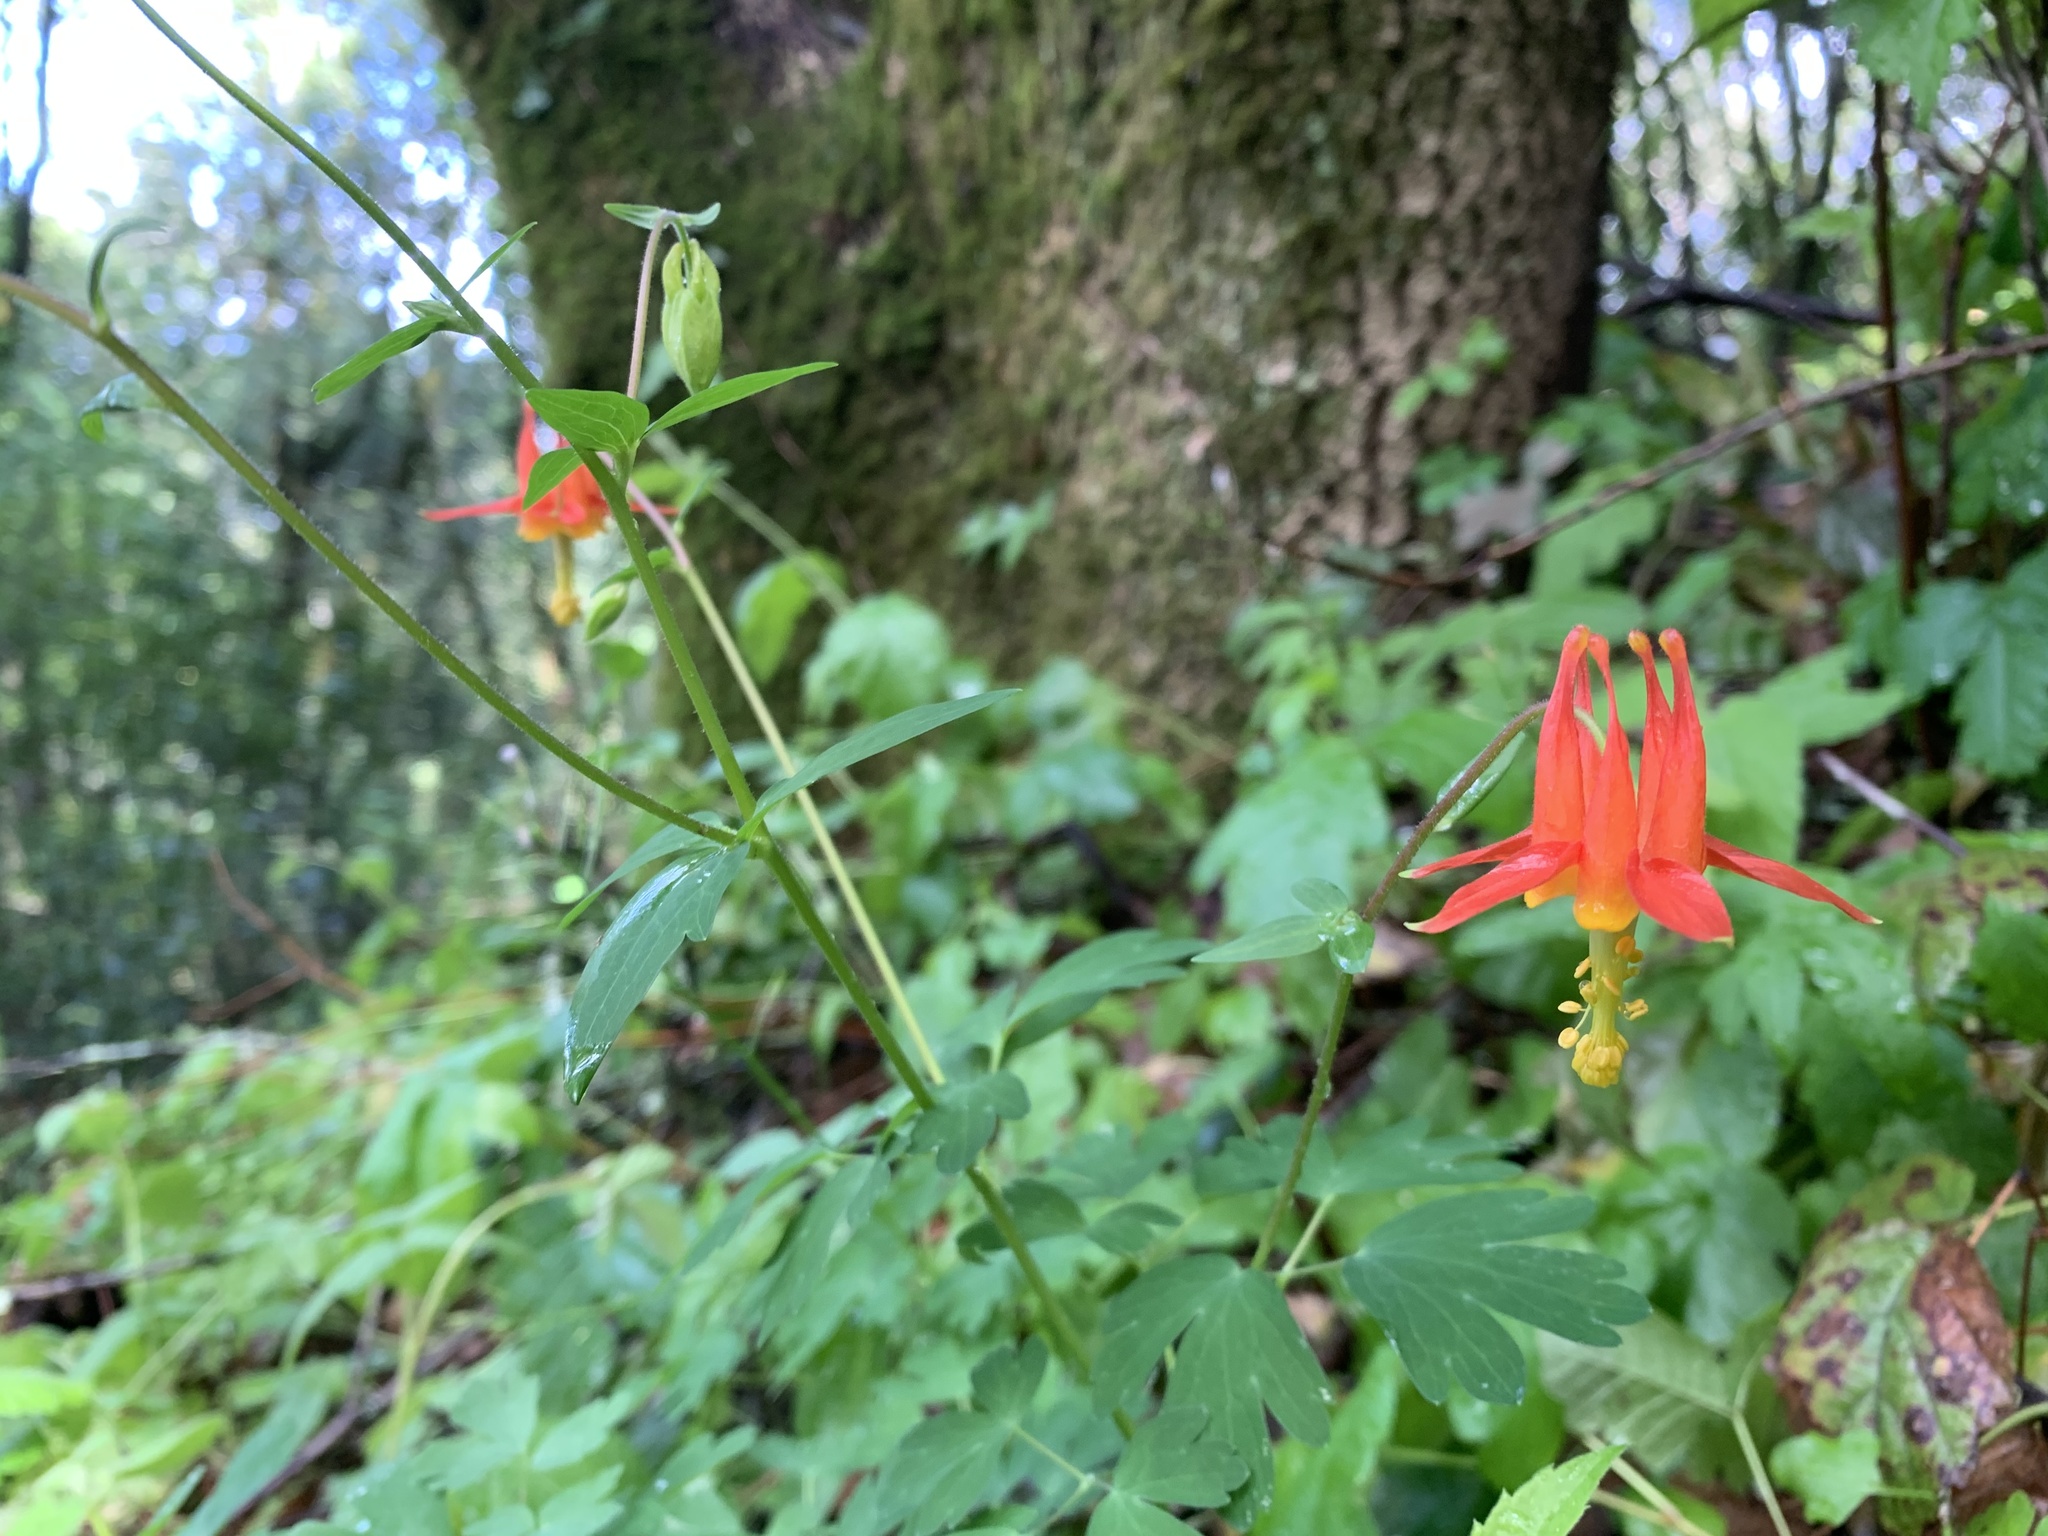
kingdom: Plantae
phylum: Tracheophyta
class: Magnoliopsida
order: Ranunculales
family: Ranunculaceae
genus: Aquilegia
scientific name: Aquilegia formosa
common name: Sitka columbine
